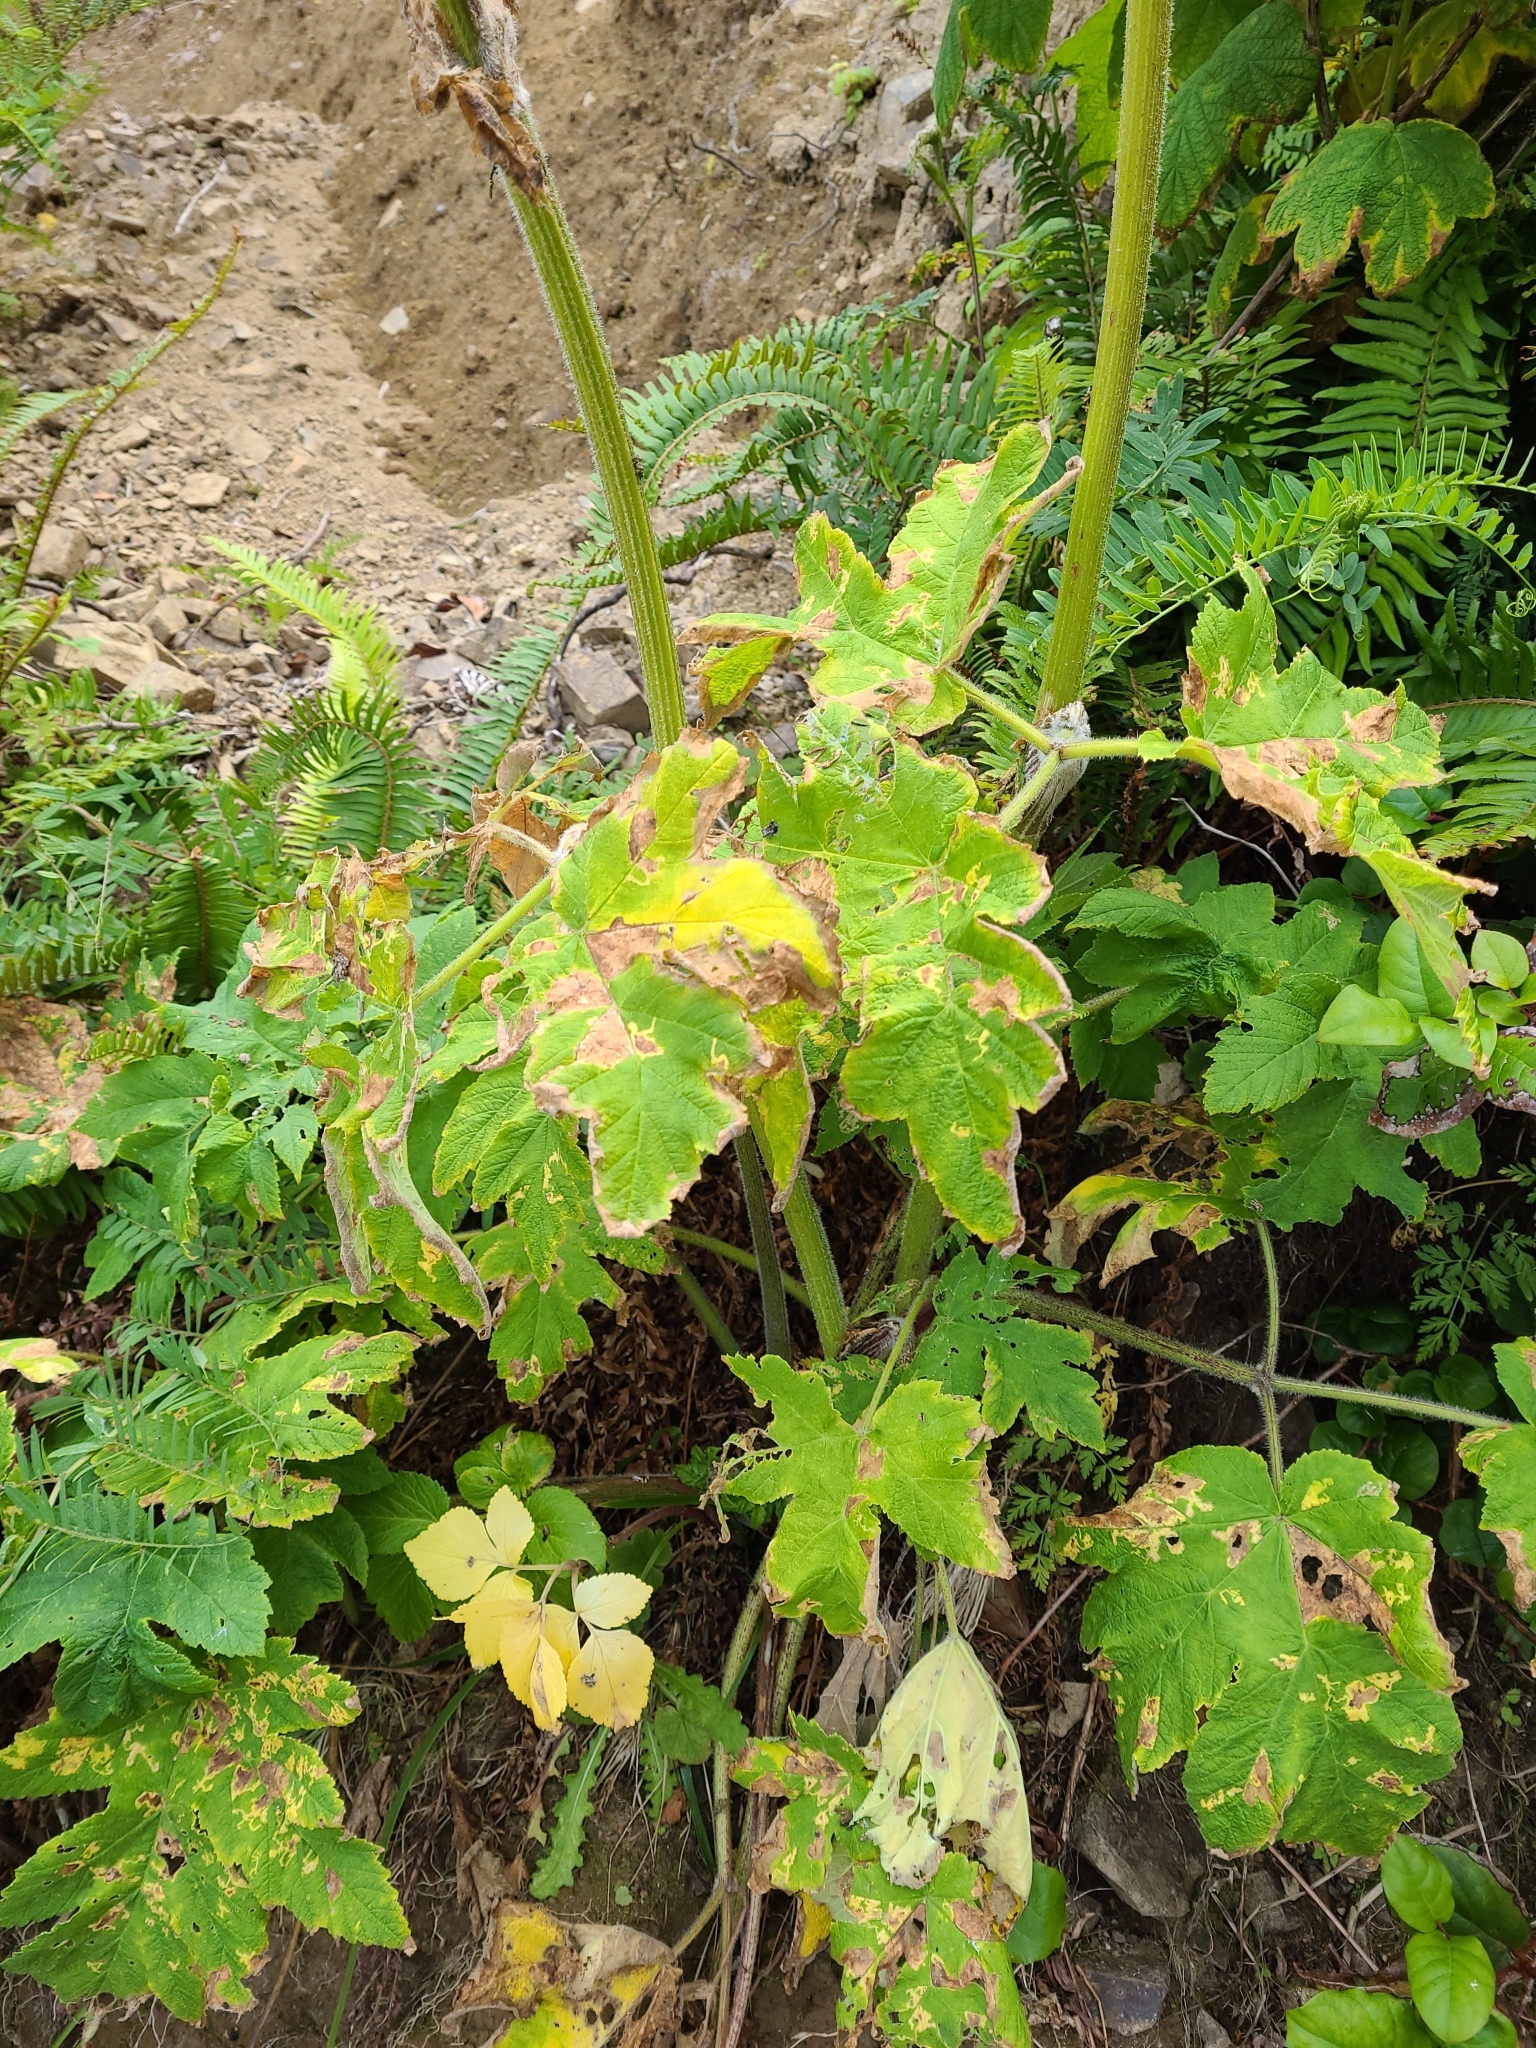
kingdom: Plantae
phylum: Tracheophyta
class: Magnoliopsida
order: Apiales
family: Apiaceae
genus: Heracleum
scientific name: Heracleum maximum
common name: American cow parsnip
